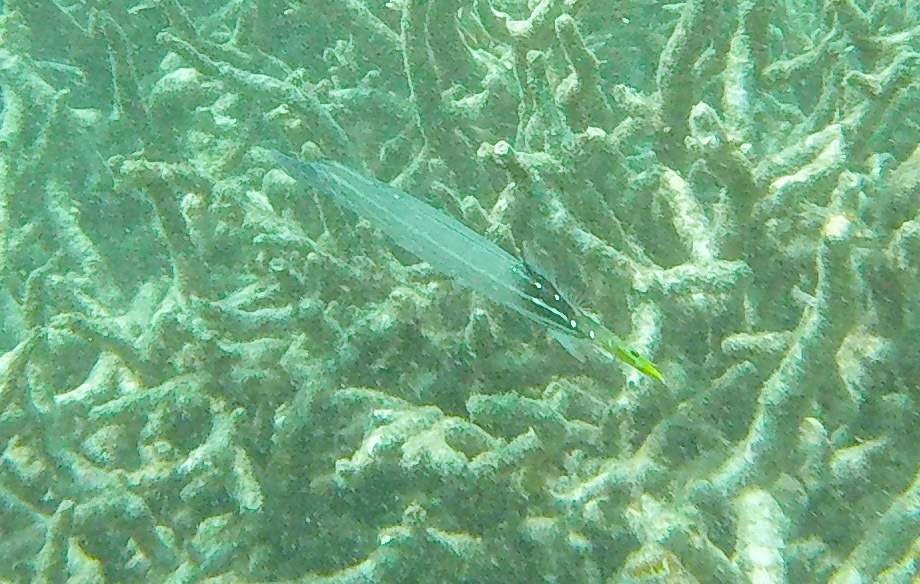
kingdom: Animalia
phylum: Chordata
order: Syngnathiformes
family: Aulostomidae
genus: Aulostomus
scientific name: Aulostomus chinensis
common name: Chinese trumpetfish
